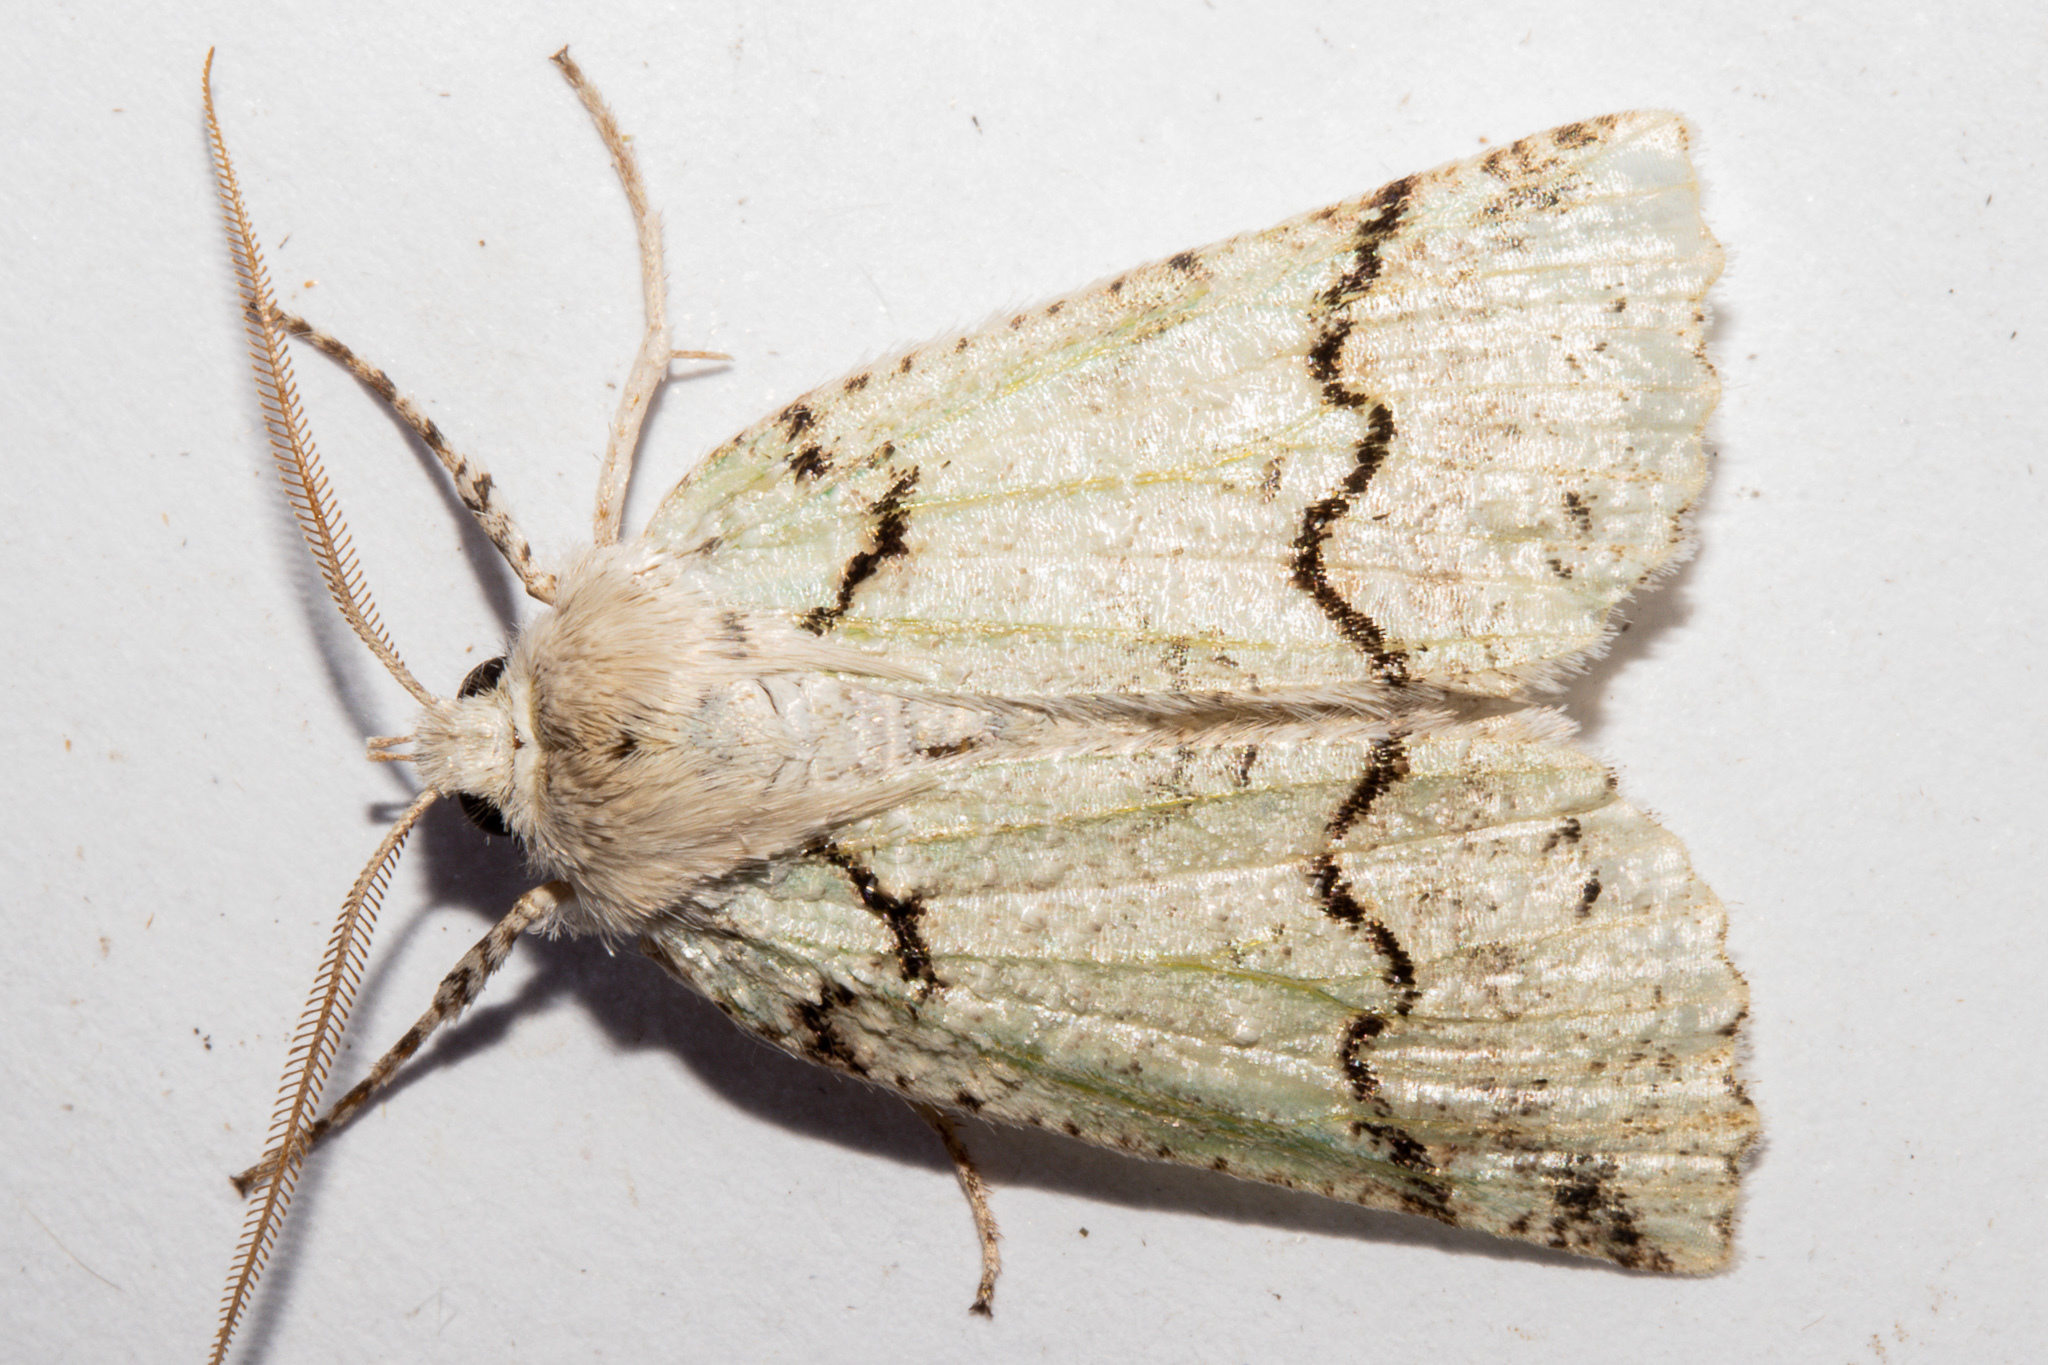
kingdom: Animalia
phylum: Arthropoda
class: Insecta
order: Lepidoptera
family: Geometridae
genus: Declana
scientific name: Declana floccosa
